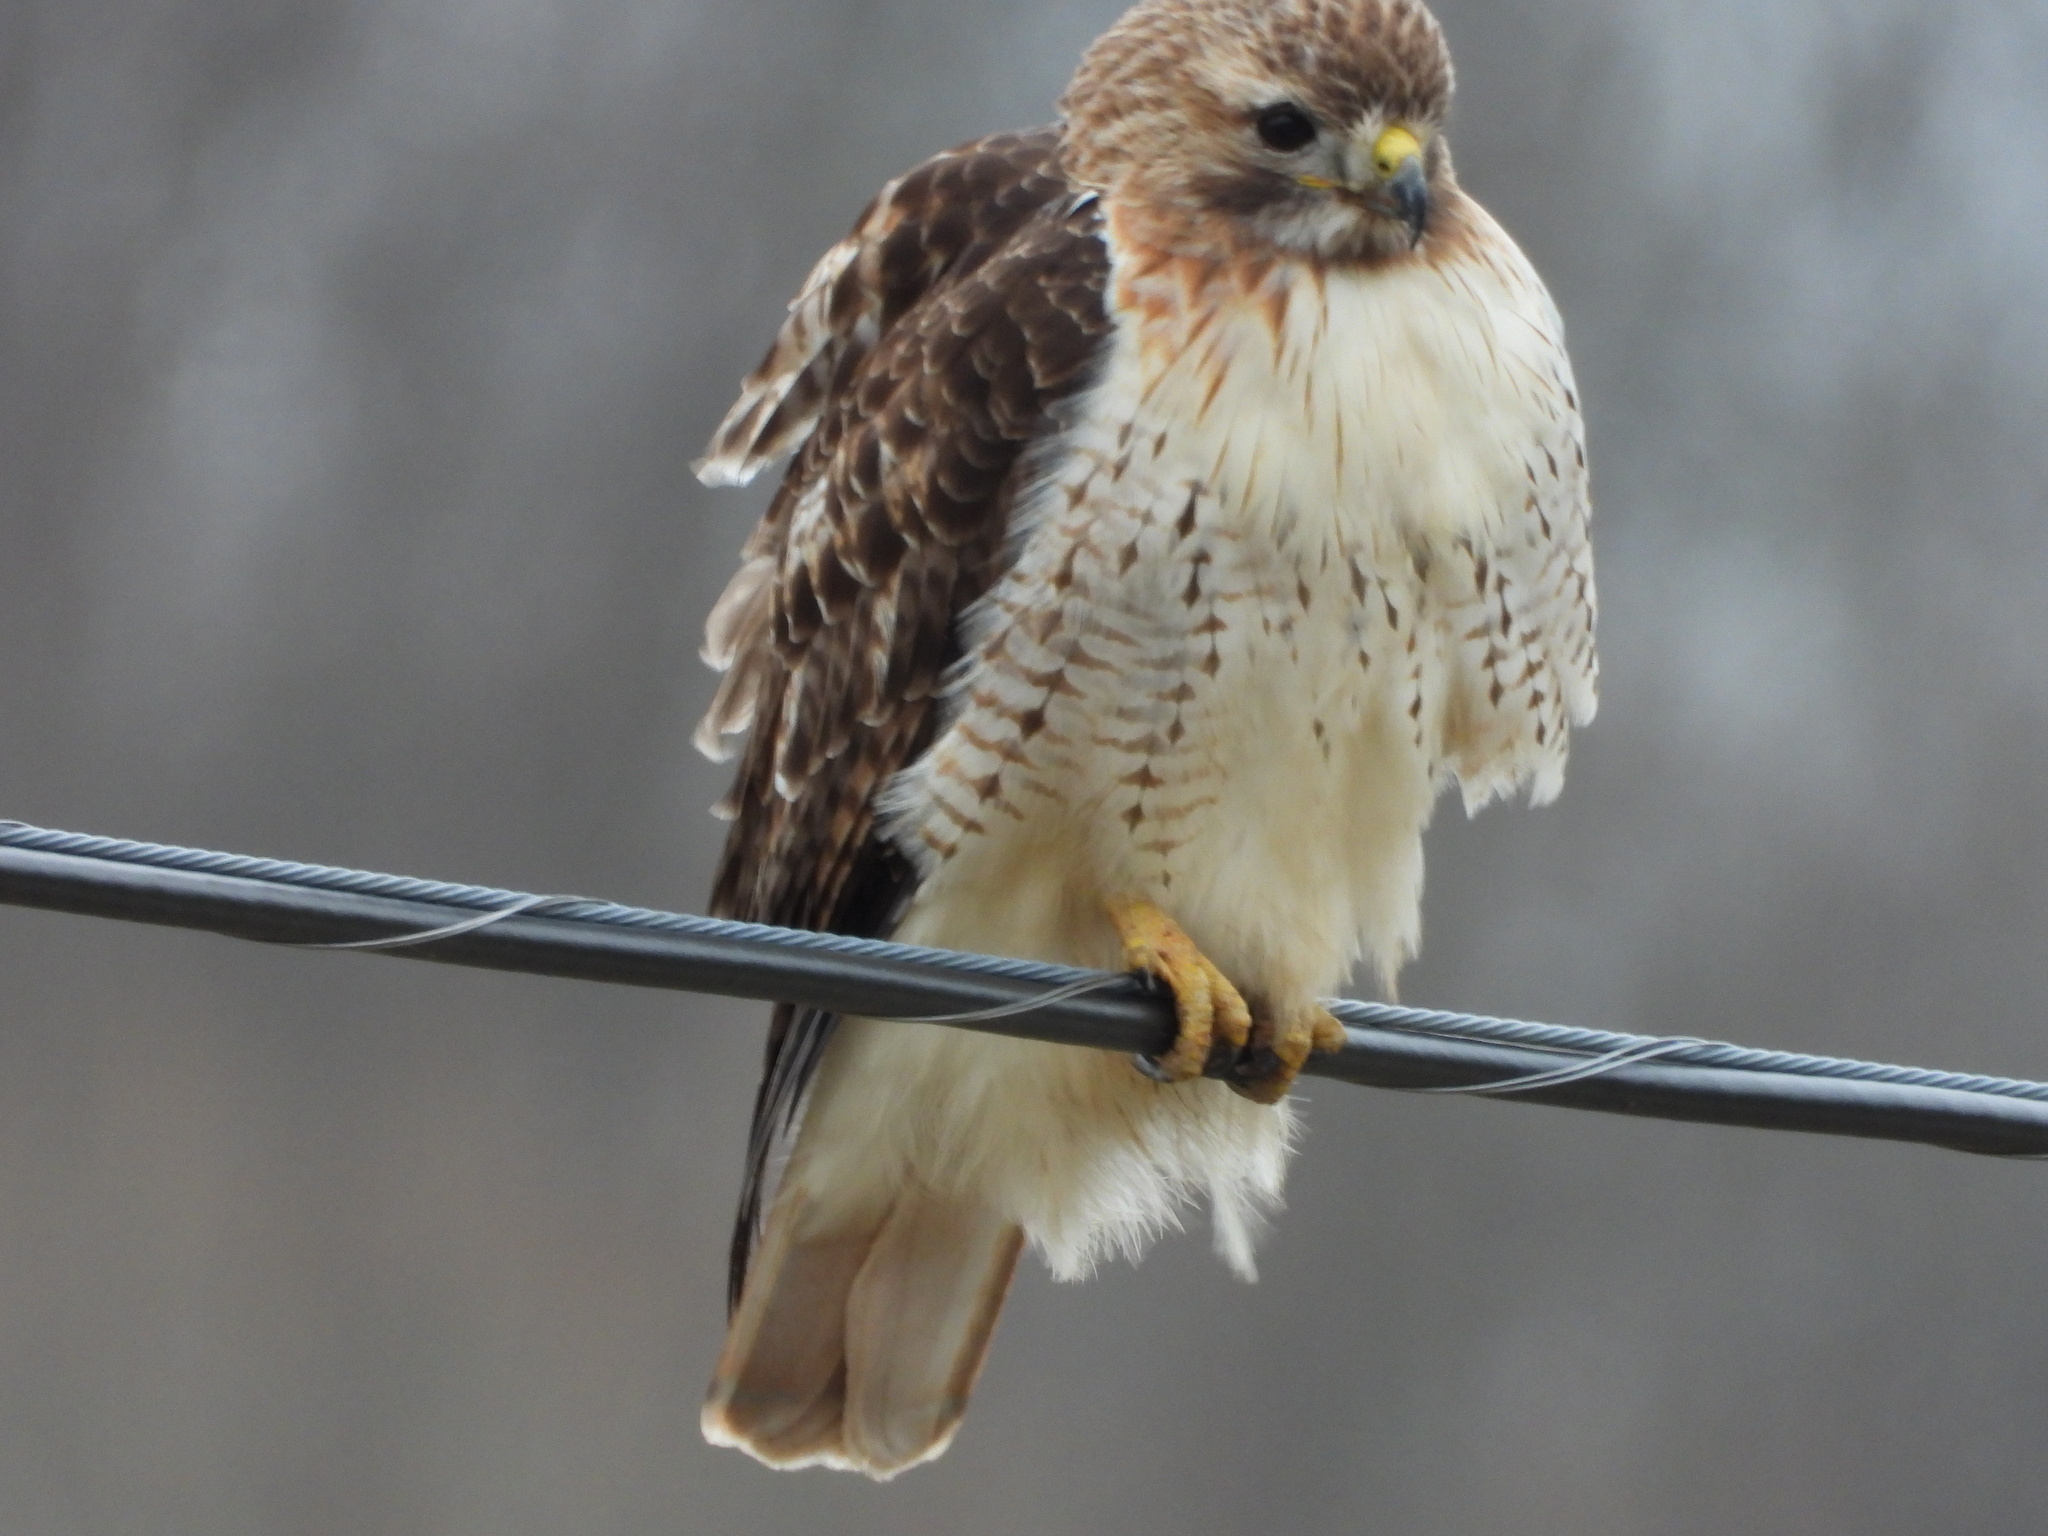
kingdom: Animalia
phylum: Chordata
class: Aves
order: Accipitriformes
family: Accipitridae
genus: Buteo
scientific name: Buteo jamaicensis
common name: Red-tailed hawk
